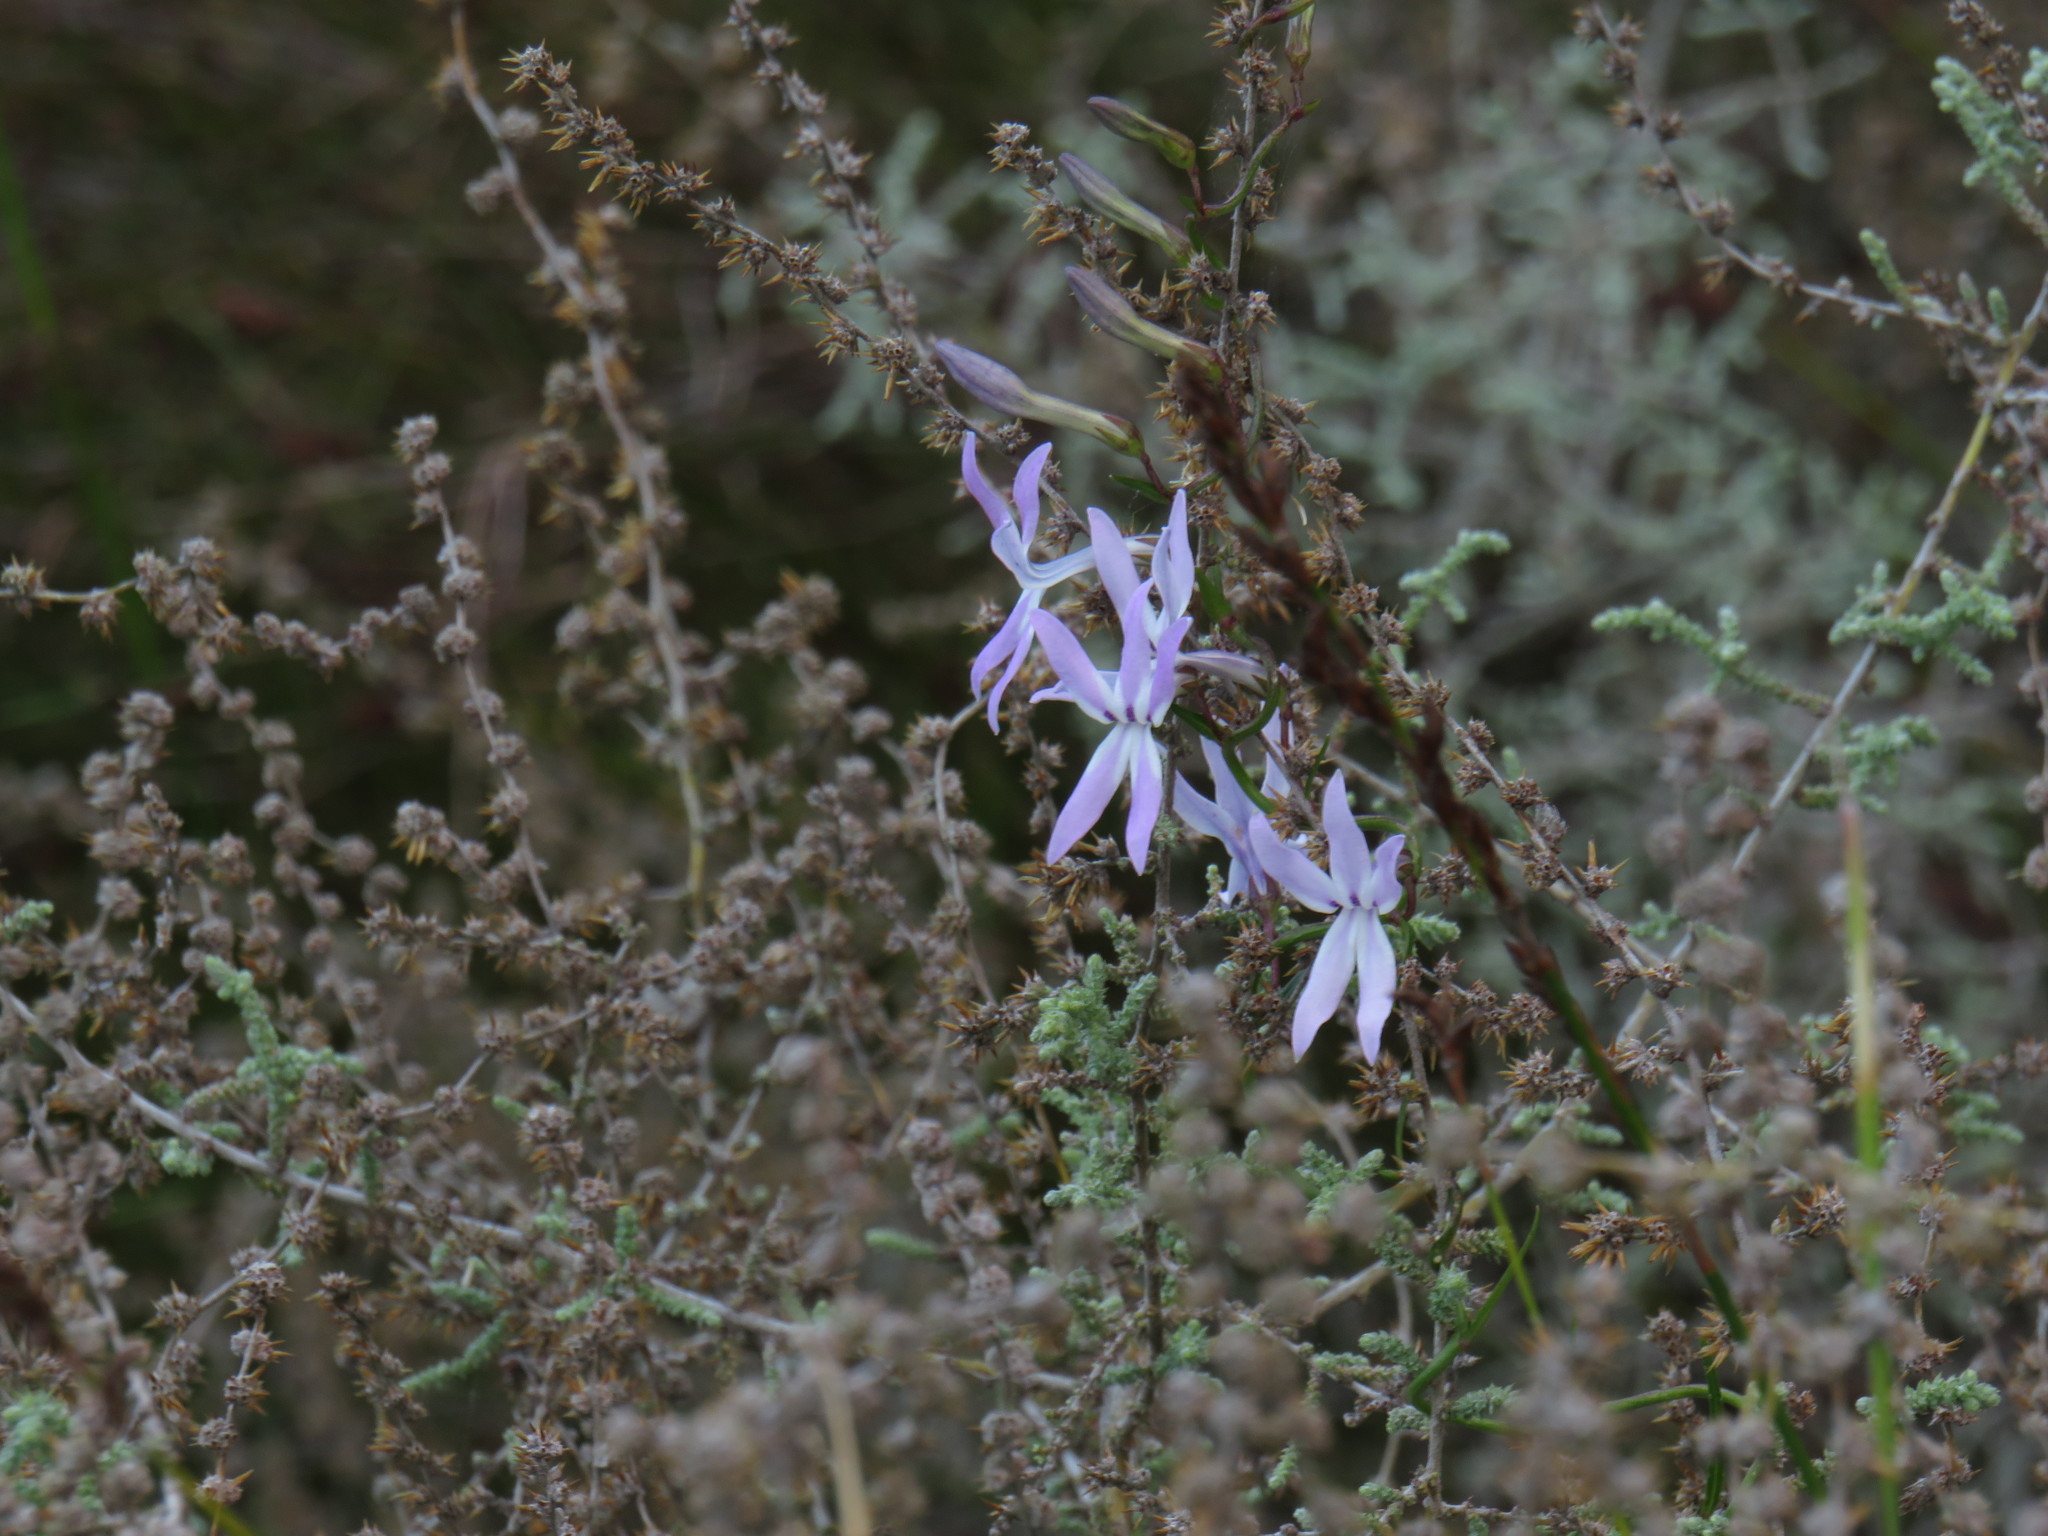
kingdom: Plantae
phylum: Tracheophyta
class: Magnoliopsida
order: Asterales
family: Campanulaceae
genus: Cyphia
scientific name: Cyphia volubilis
